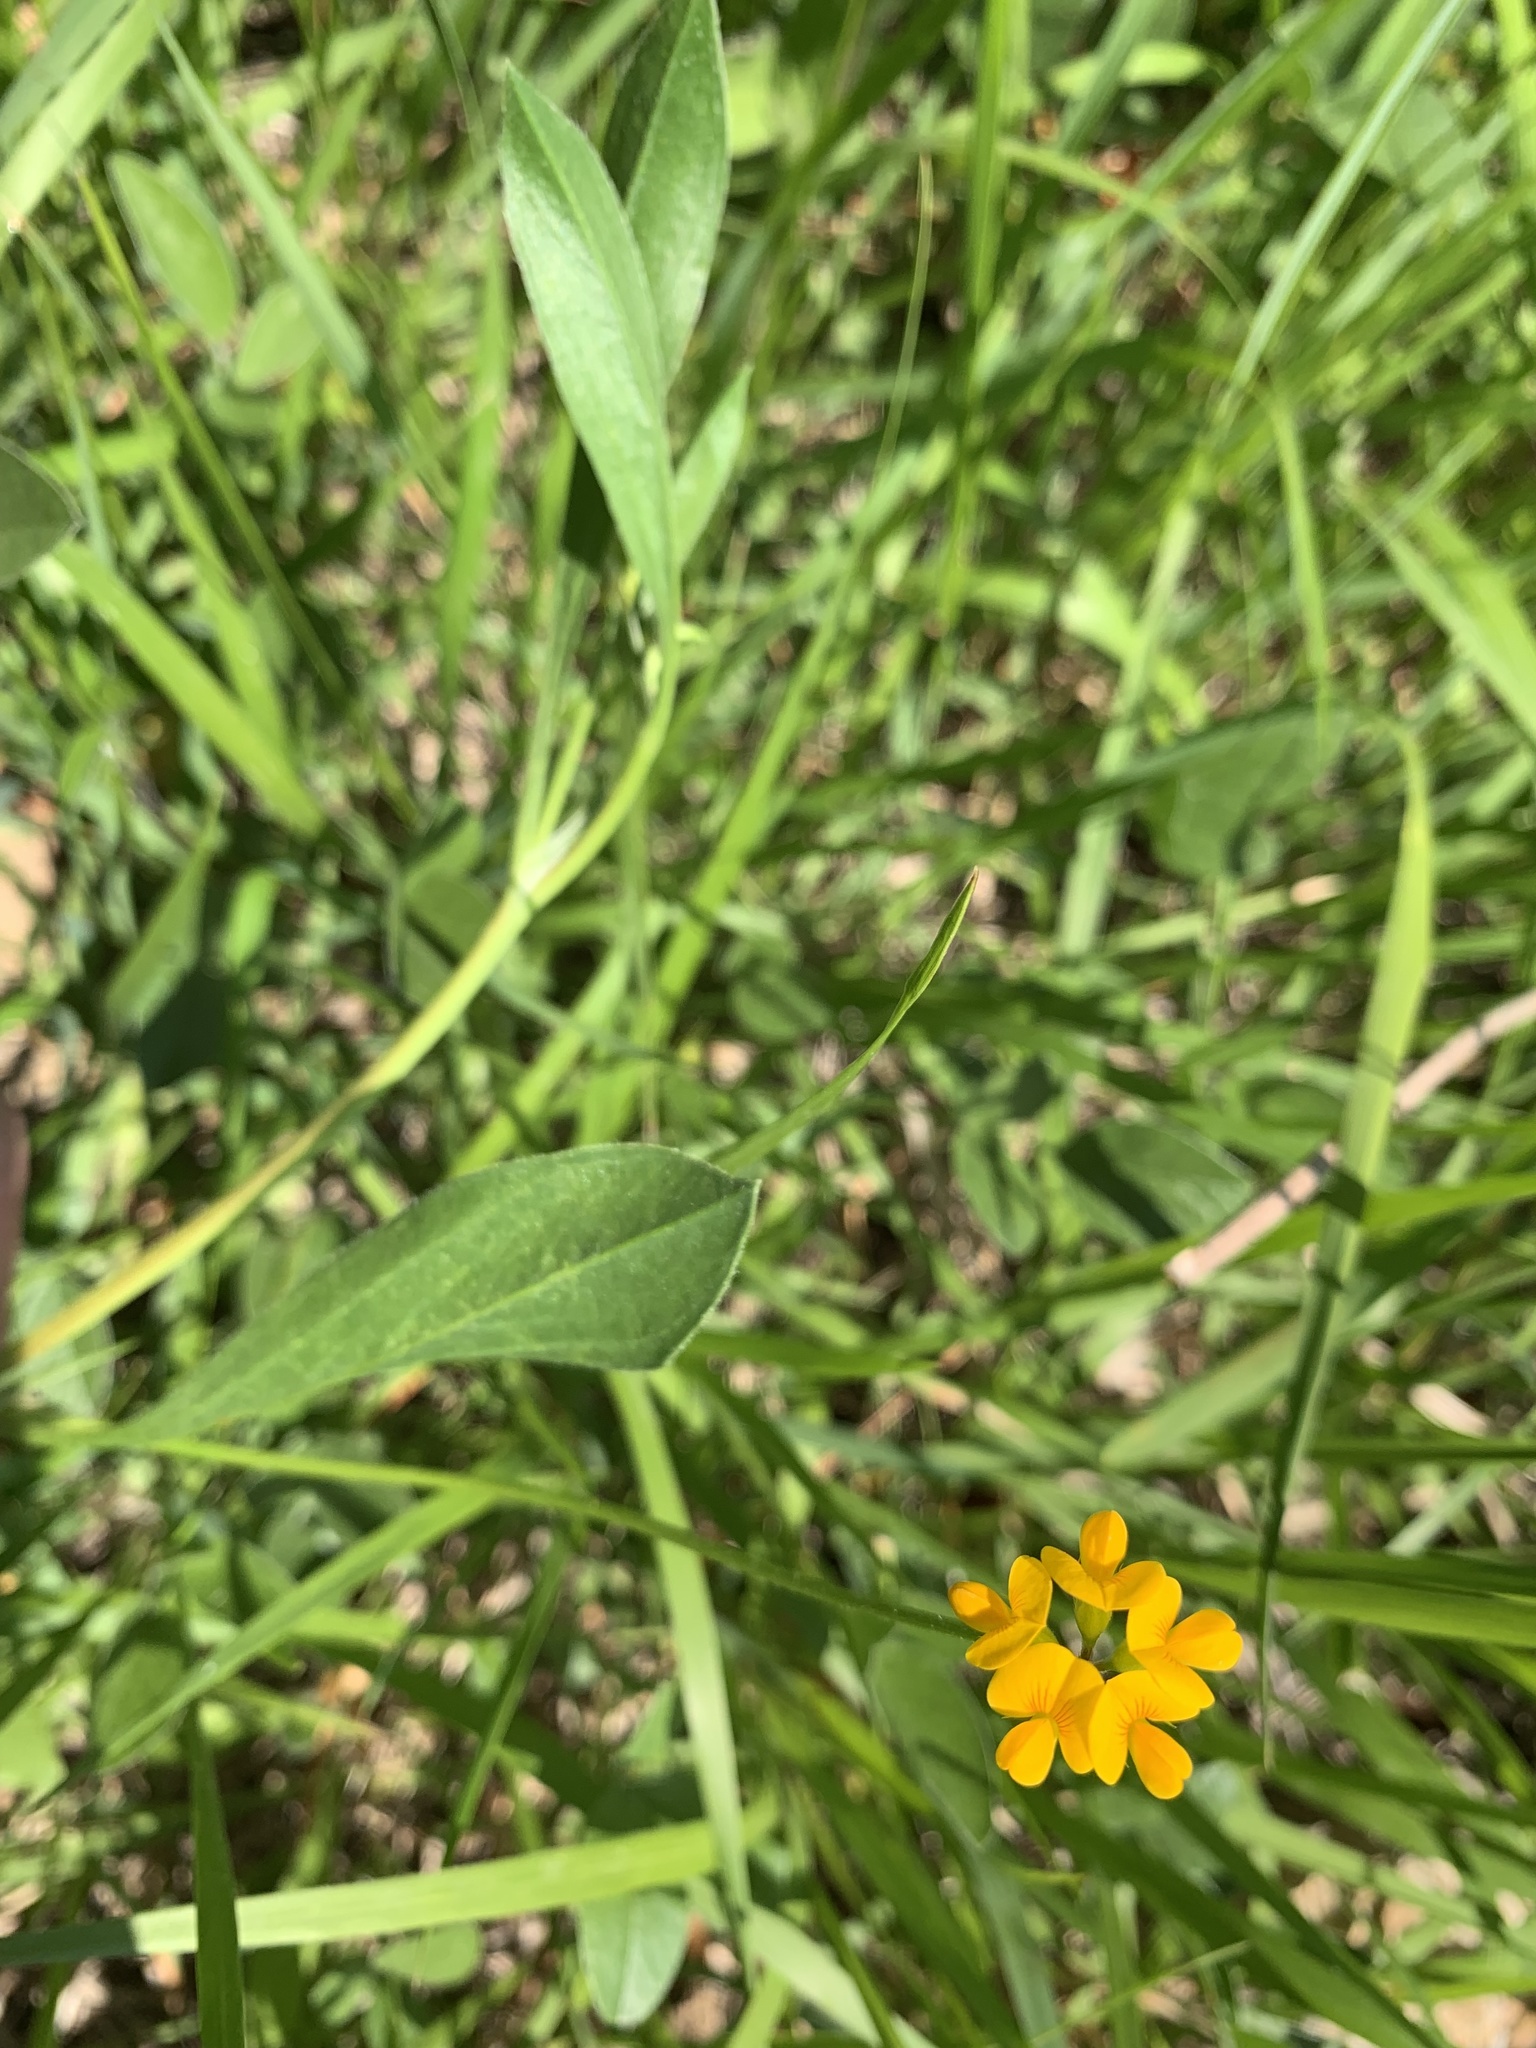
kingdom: Plantae
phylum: Tracheophyta
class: Magnoliopsida
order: Fabales
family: Fabaceae
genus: Scorpiurus
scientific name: Scorpiurus muricatus
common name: Caterpillar-plant
